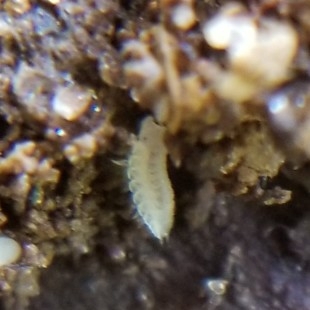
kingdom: Animalia
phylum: Arthropoda
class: Malacostraca
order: Isopoda
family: Trichoniscidae
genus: Haplophthalmus
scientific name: Haplophthalmus danicus
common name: Pillbug
